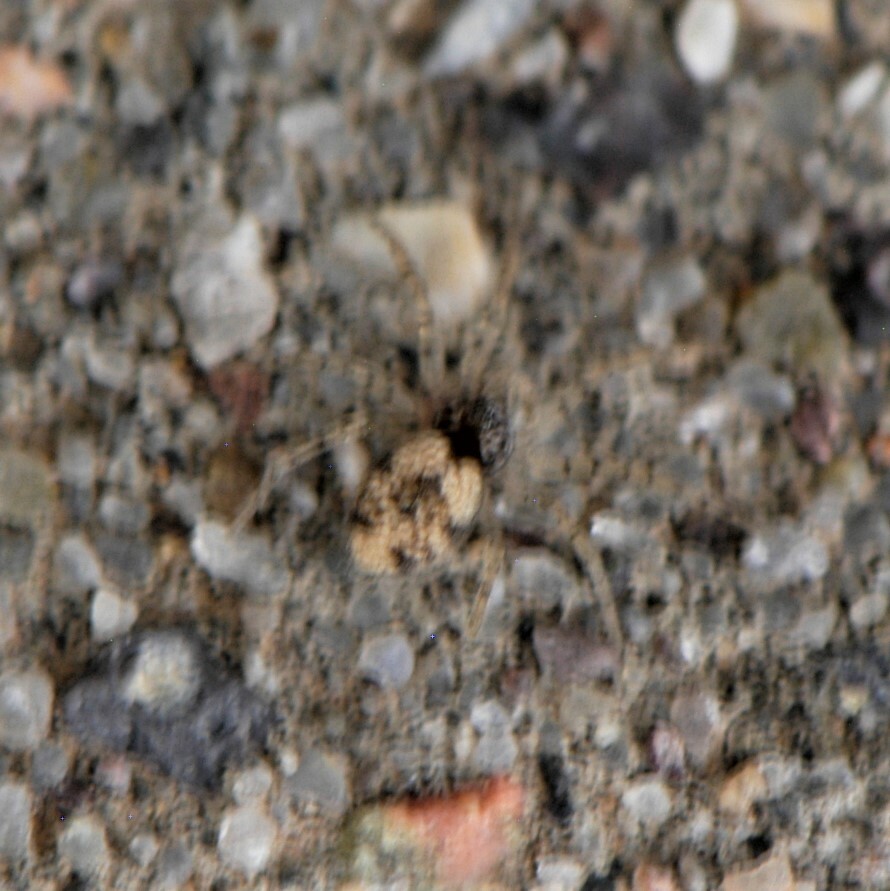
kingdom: Animalia
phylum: Arthropoda
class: Arachnida
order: Araneae
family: Oecobiidae
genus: Oecobius
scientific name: Oecobius
